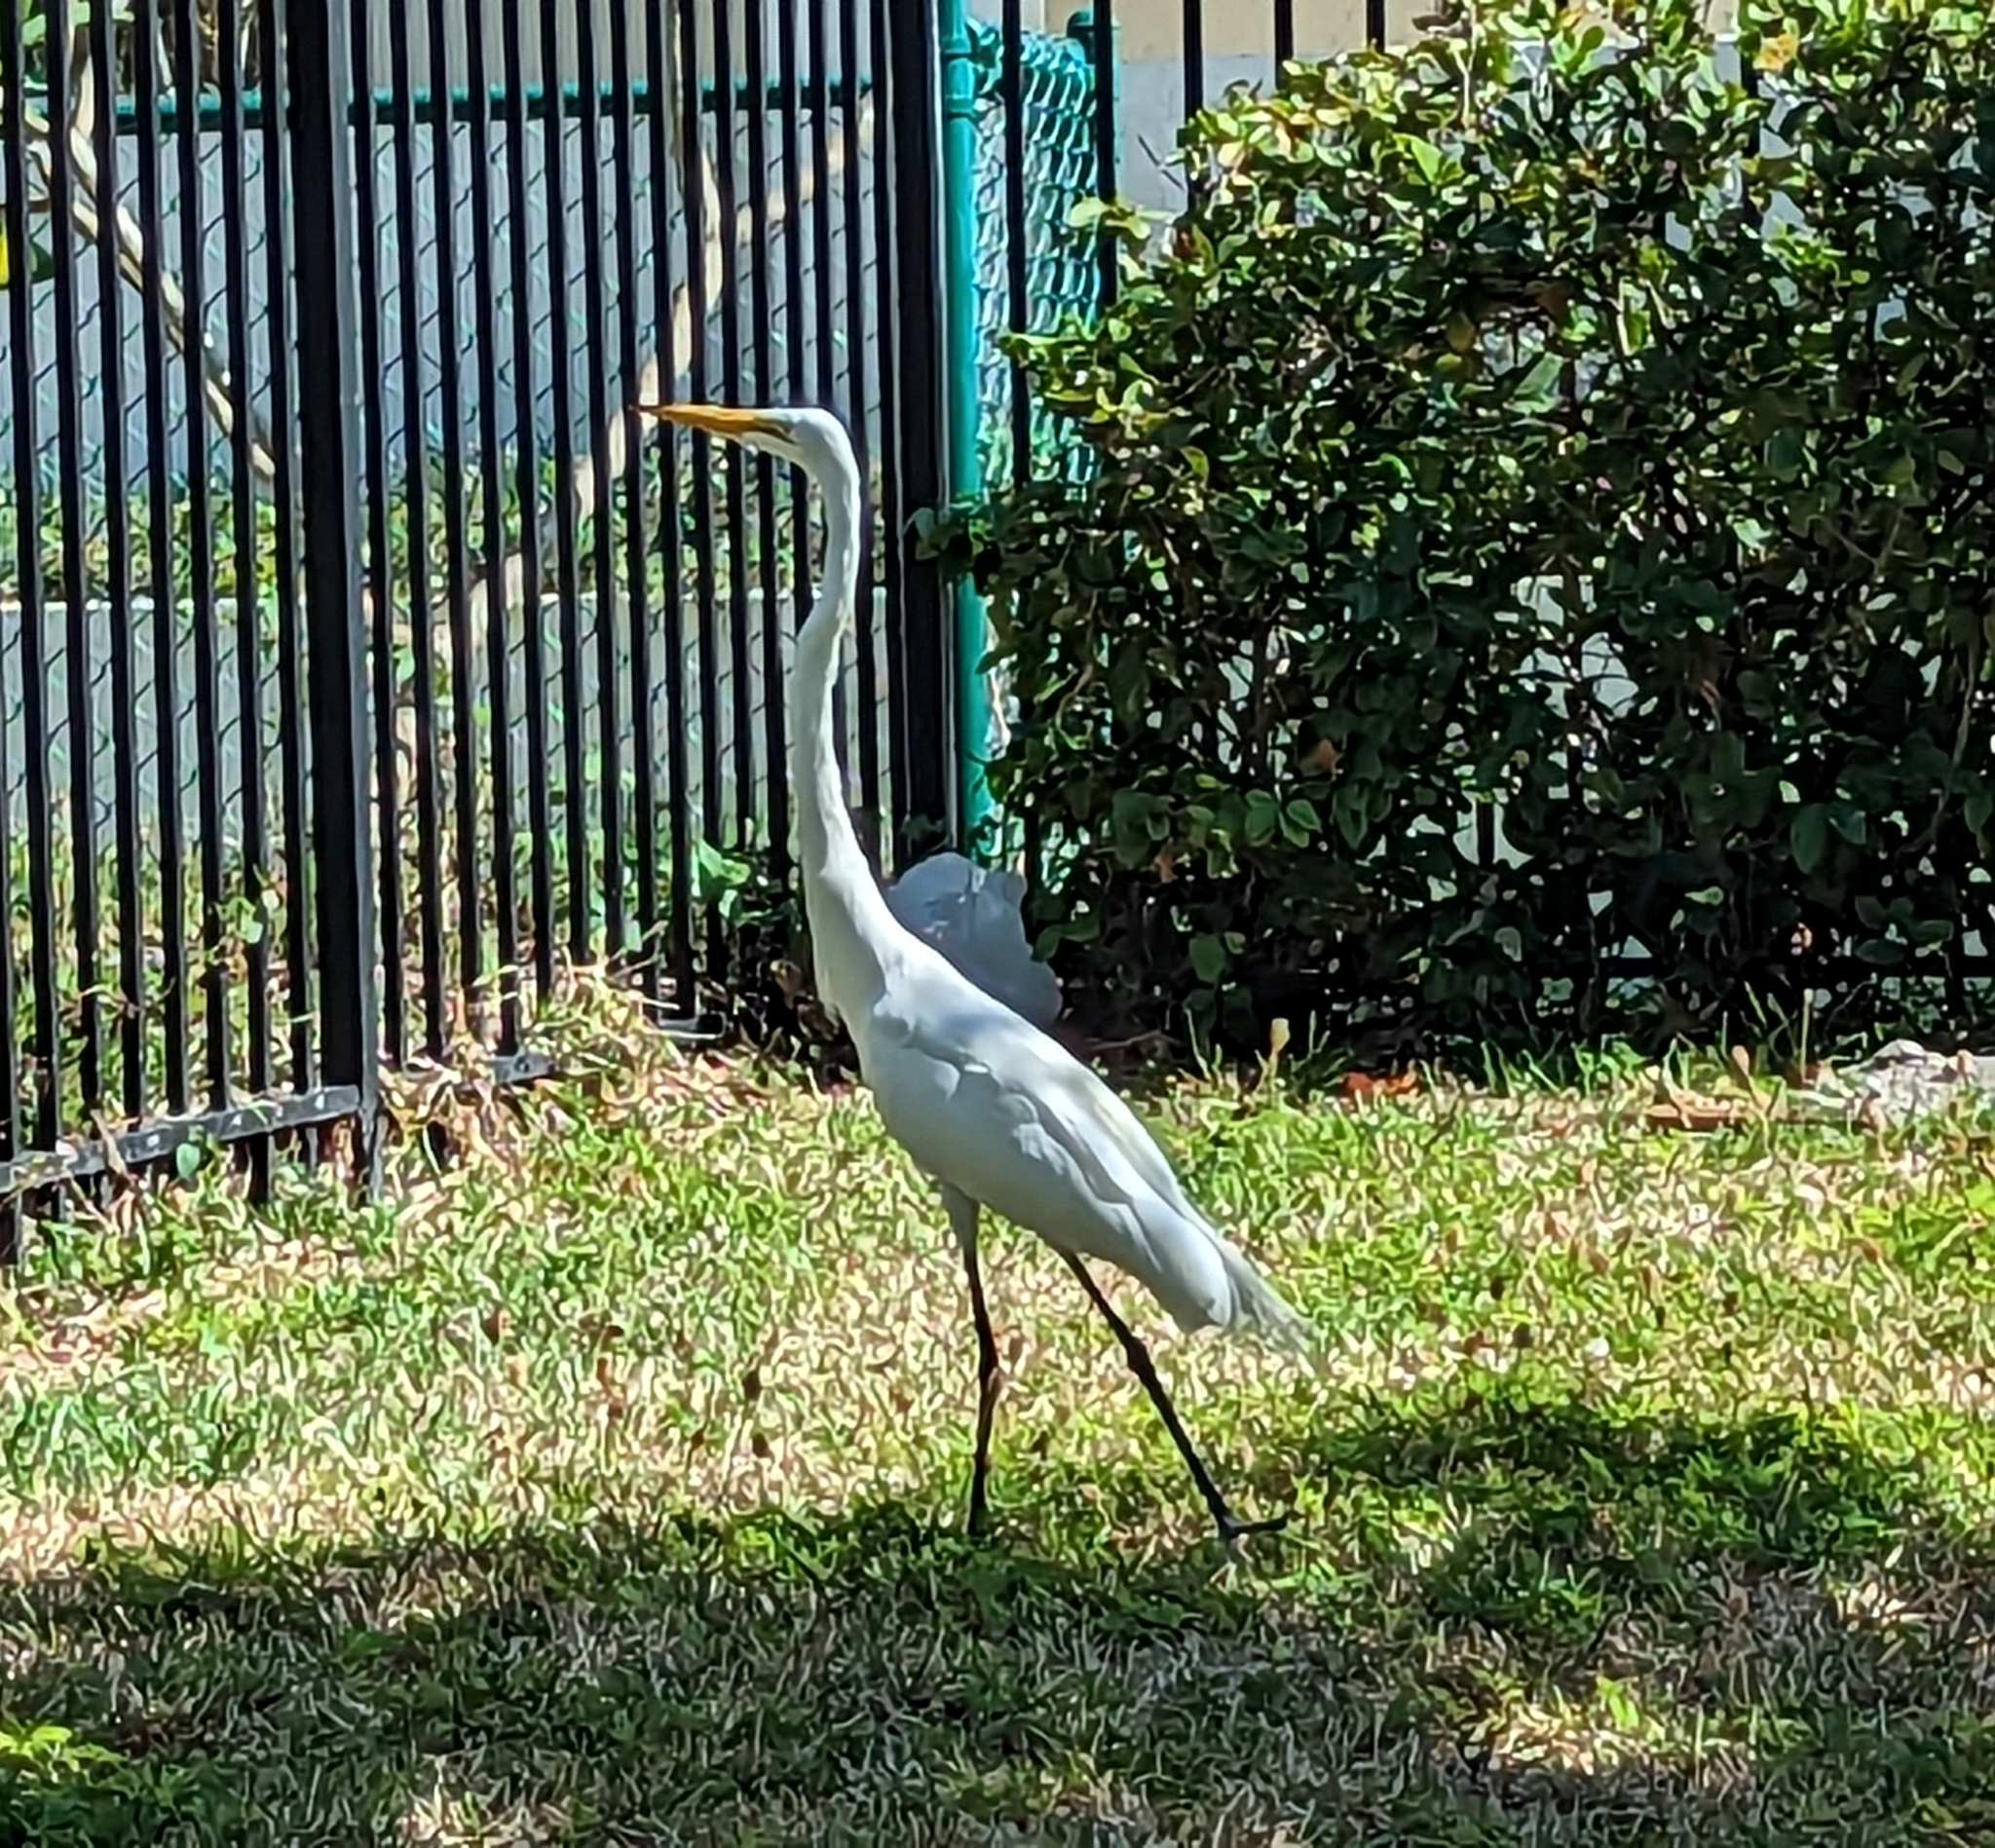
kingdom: Animalia
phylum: Chordata
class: Aves
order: Pelecaniformes
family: Ardeidae
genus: Ardea
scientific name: Ardea alba
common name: Great egret
